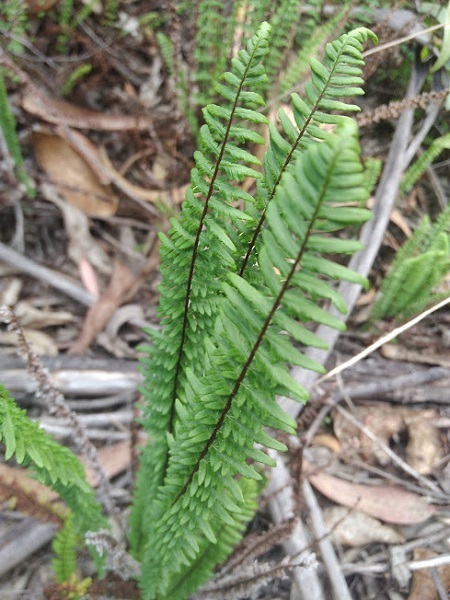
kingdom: Plantae
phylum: Tracheophyta
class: Polypodiopsida
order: Polypodiales
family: Pteridaceae
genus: Adiantopsis
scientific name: Adiantopsis lindigii
